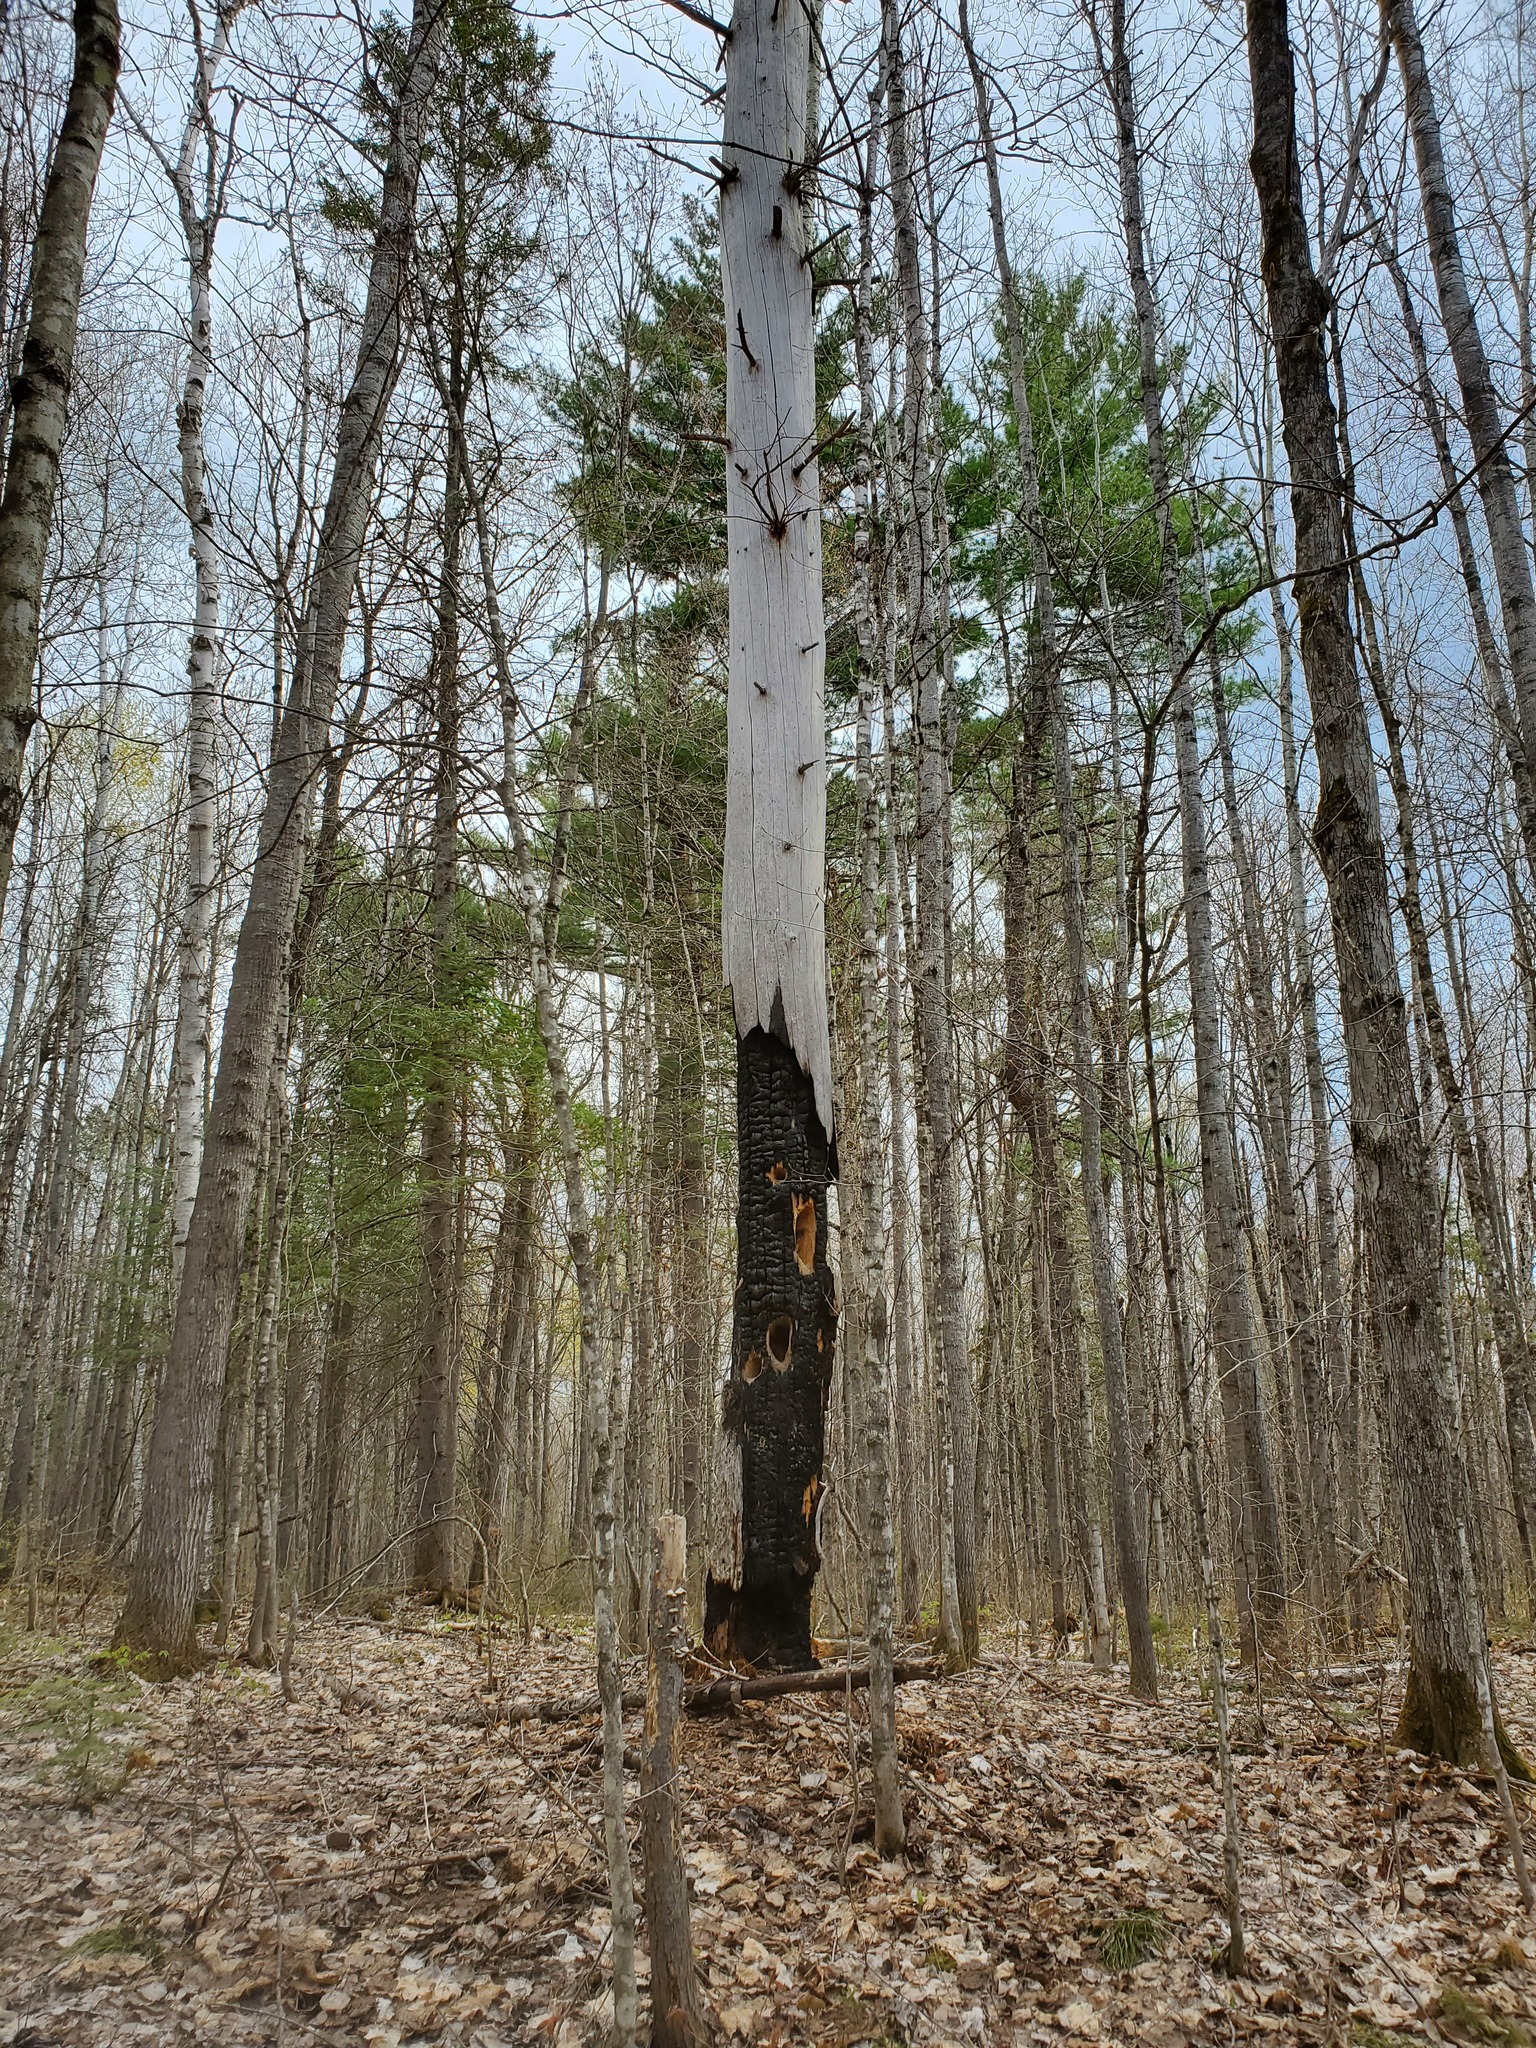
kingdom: Plantae
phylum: Tracheophyta
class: Pinopsida
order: Pinales
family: Pinaceae
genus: Pinus
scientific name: Pinus strobus
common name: Weymouth pine
